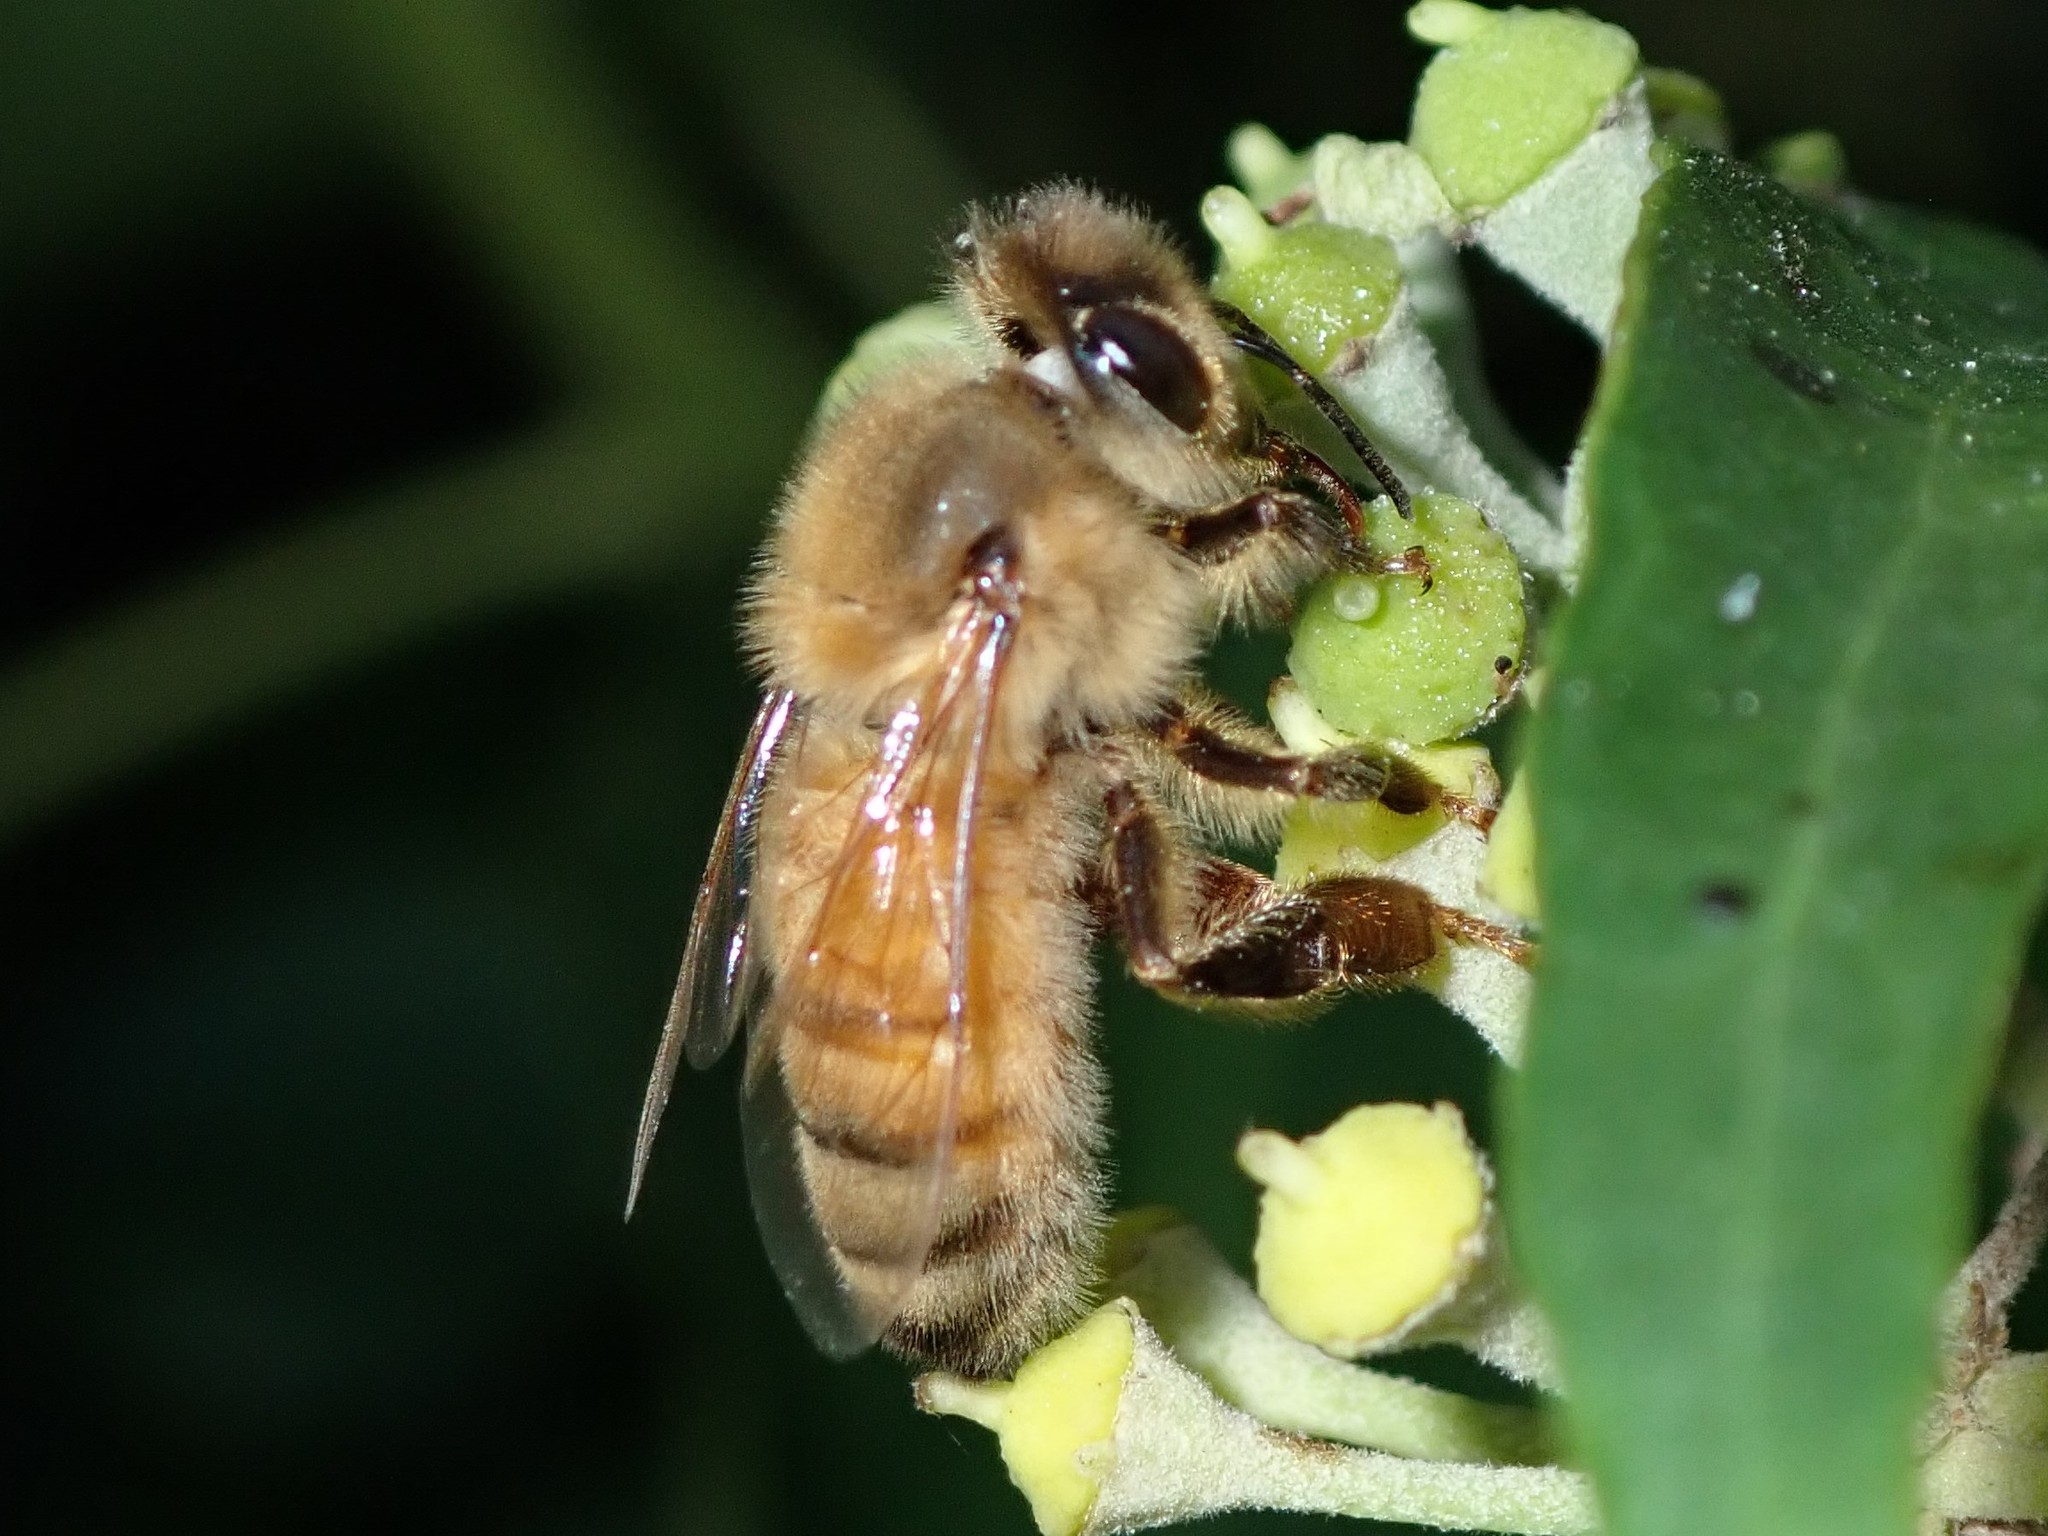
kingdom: Animalia
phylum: Arthropoda
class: Insecta
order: Hymenoptera
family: Apidae
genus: Apis
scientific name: Apis mellifera
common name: Honey bee
